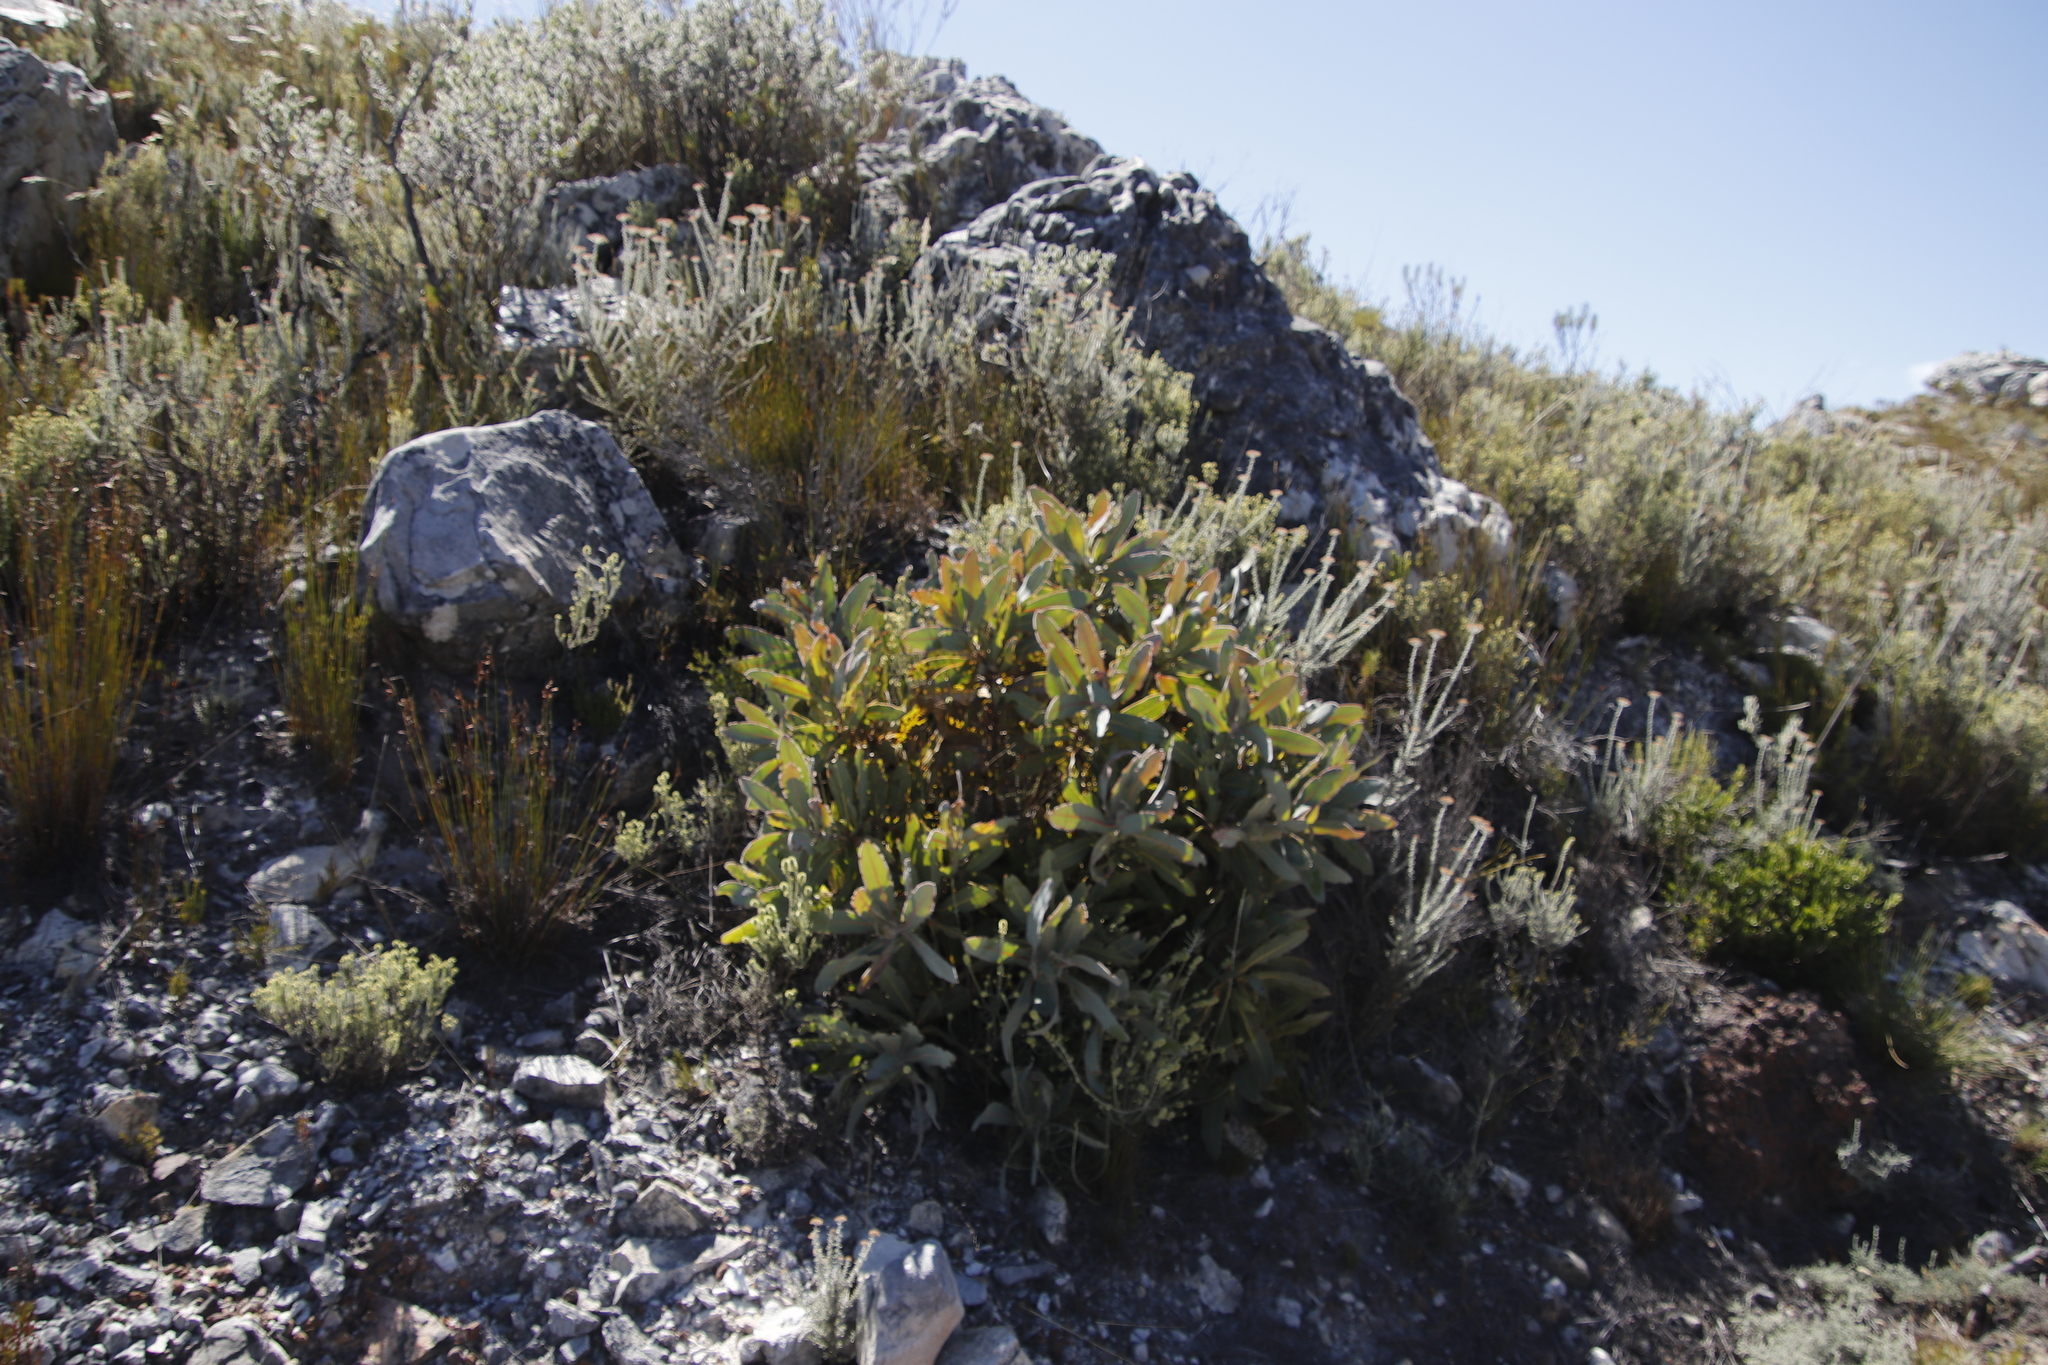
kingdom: Plantae
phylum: Tracheophyta
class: Magnoliopsida
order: Proteales
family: Proteaceae
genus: Protea
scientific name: Protea magnifica
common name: Bearded sugarbush
